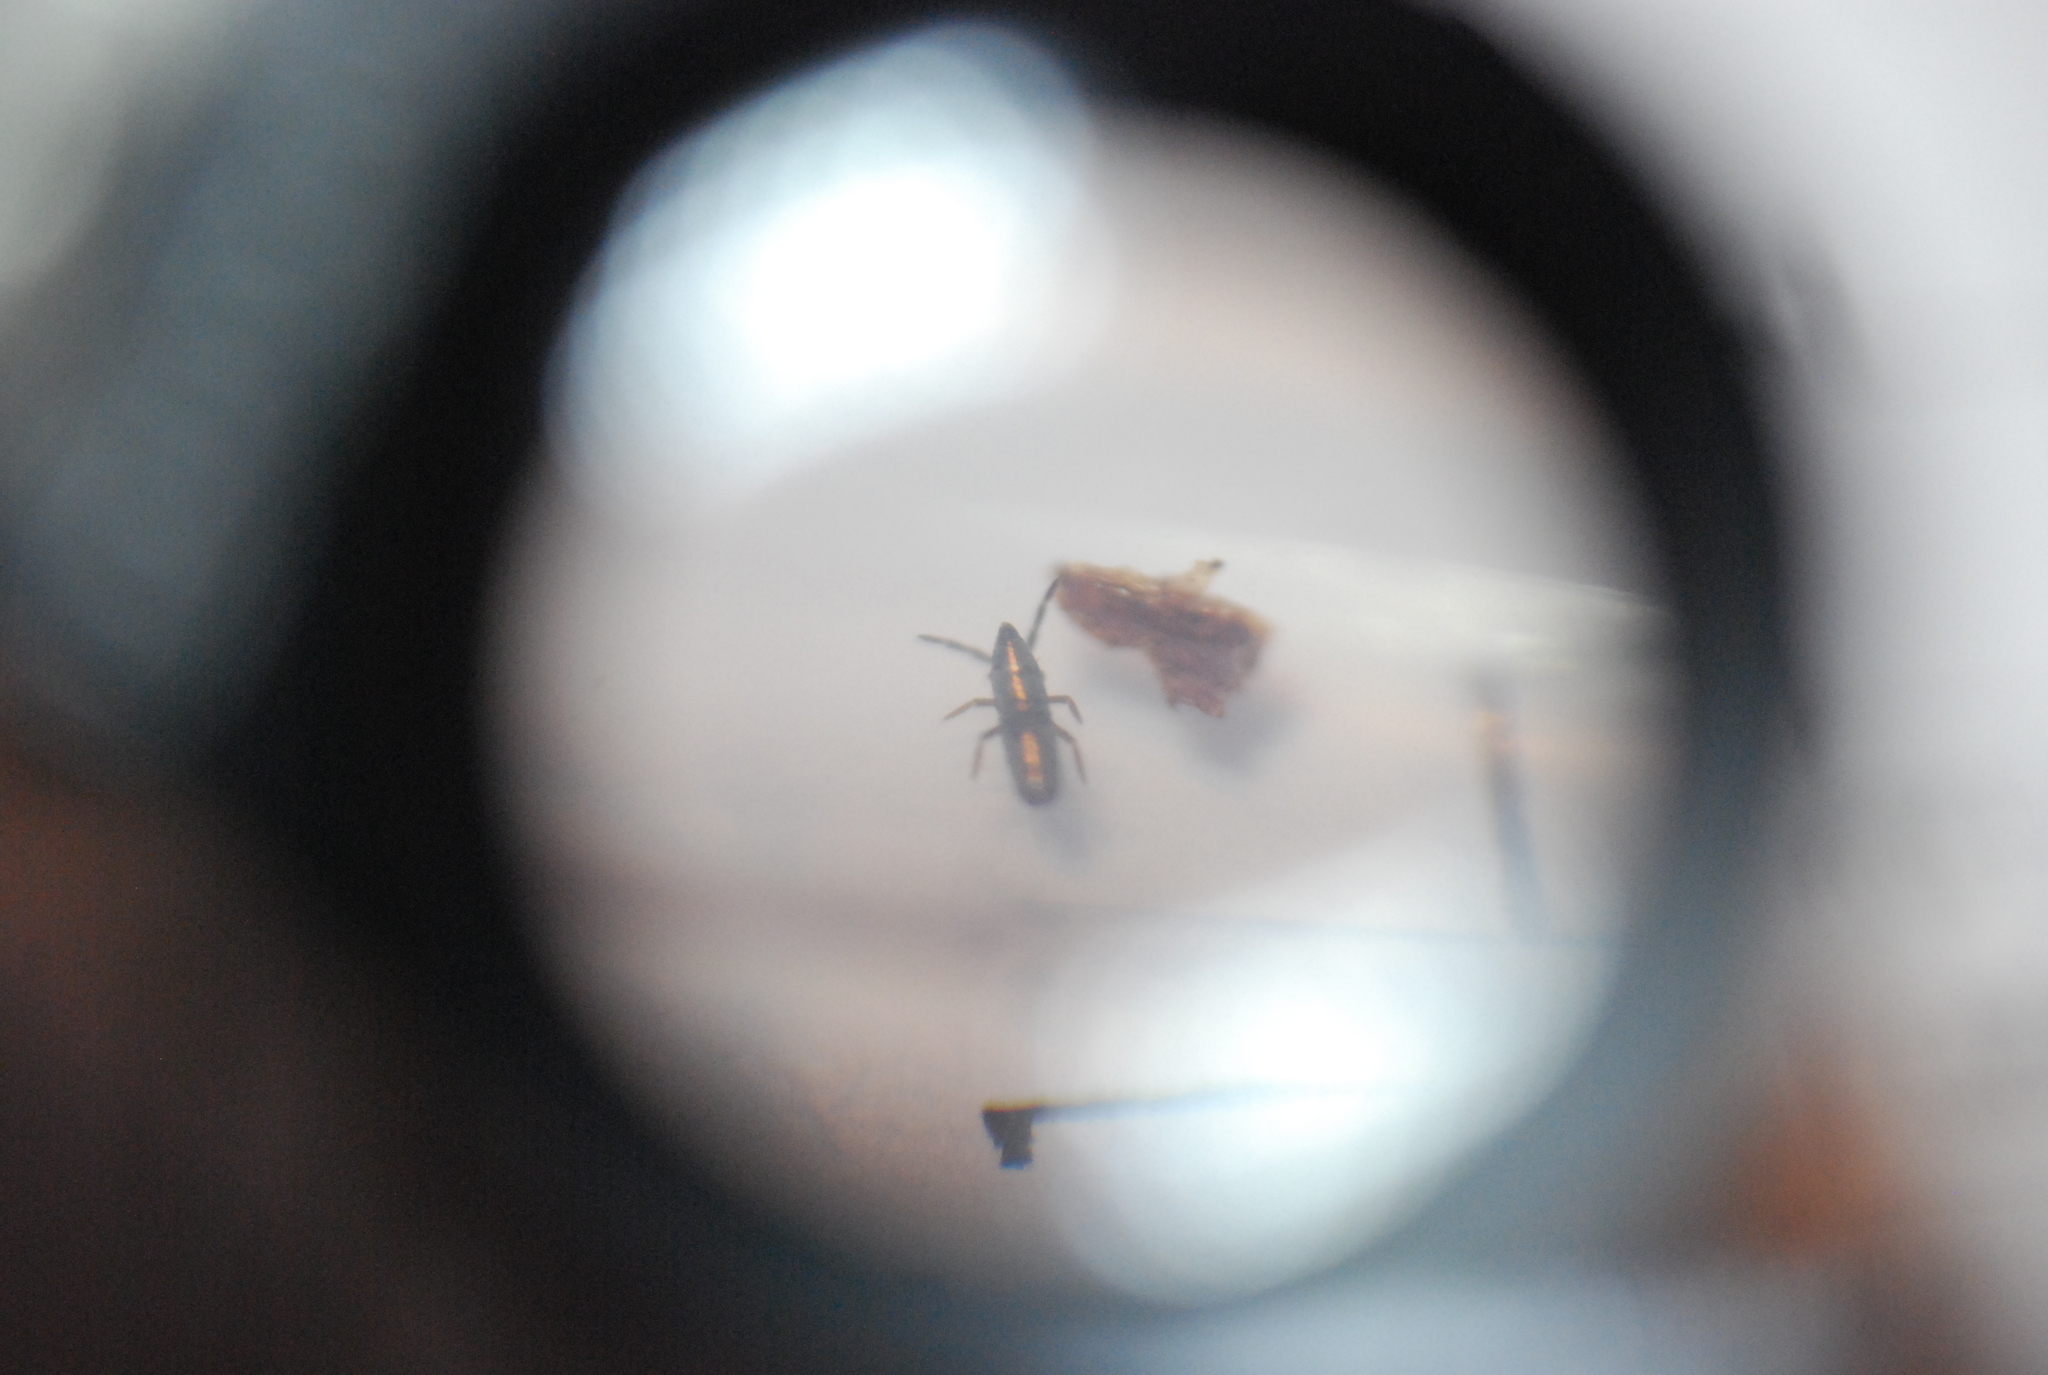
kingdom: Animalia
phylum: Arthropoda
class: Collembola
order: Entomobryomorpha
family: Entomobryidae
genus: Lepidocyrtus
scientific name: Lepidocyrtus paradoxus
